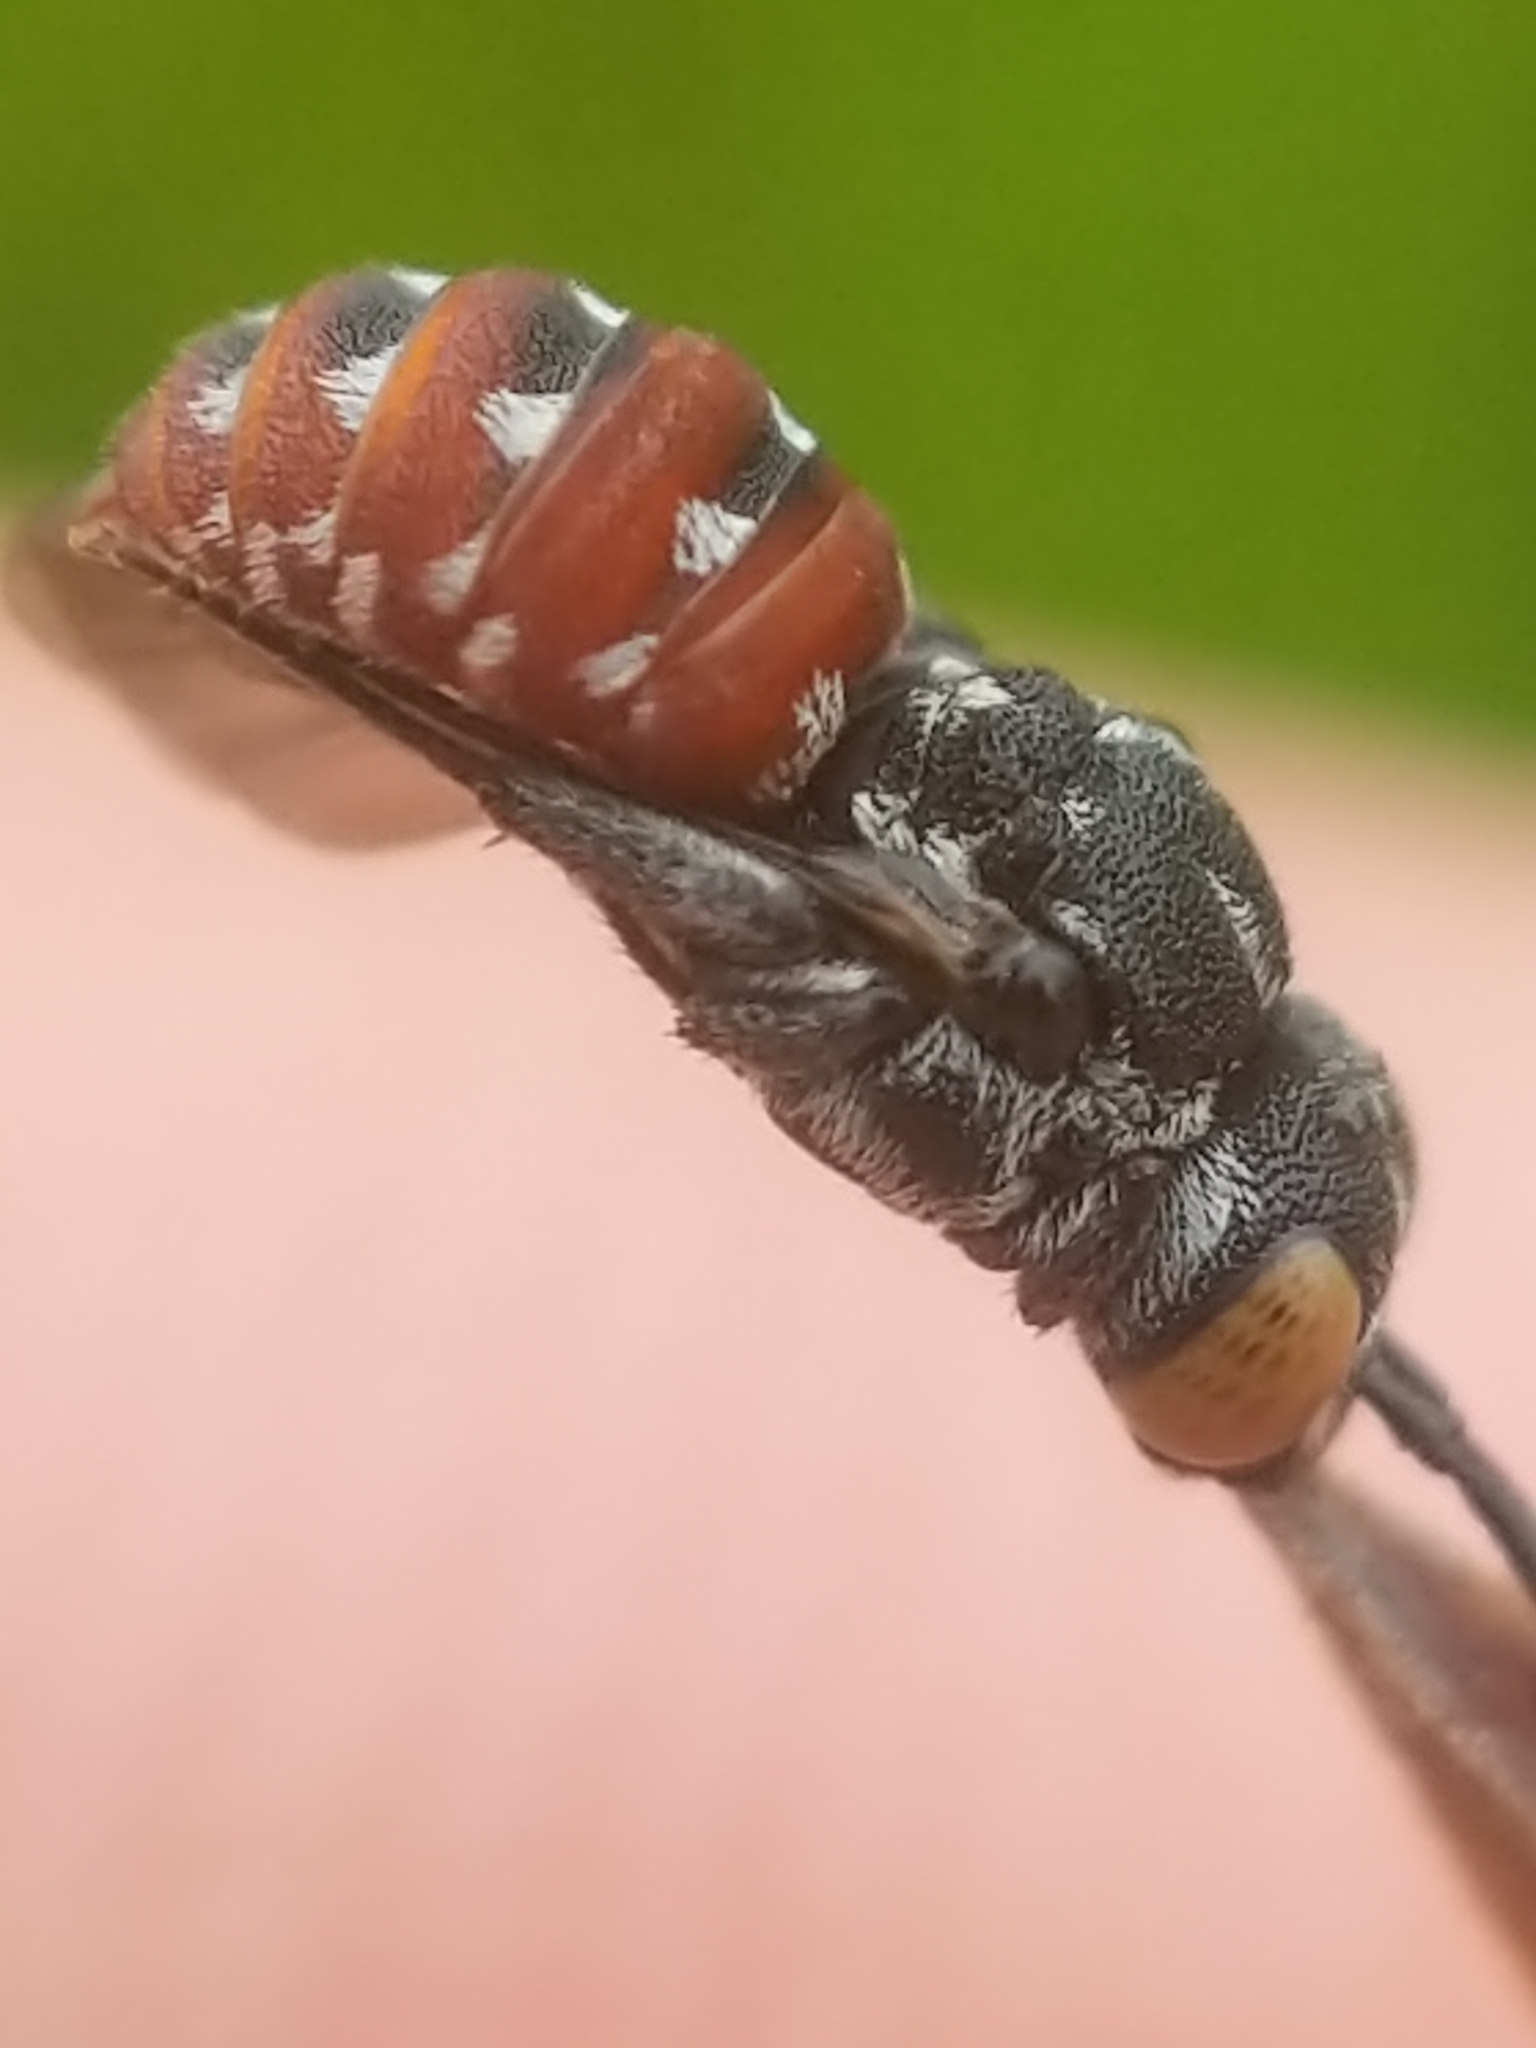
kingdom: Animalia
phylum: Arthropoda
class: Insecta
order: Hymenoptera
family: Apidae
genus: Holcopasites
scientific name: Holcopasites calliopsidis
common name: Calliopsis cuckoo nomad bee
